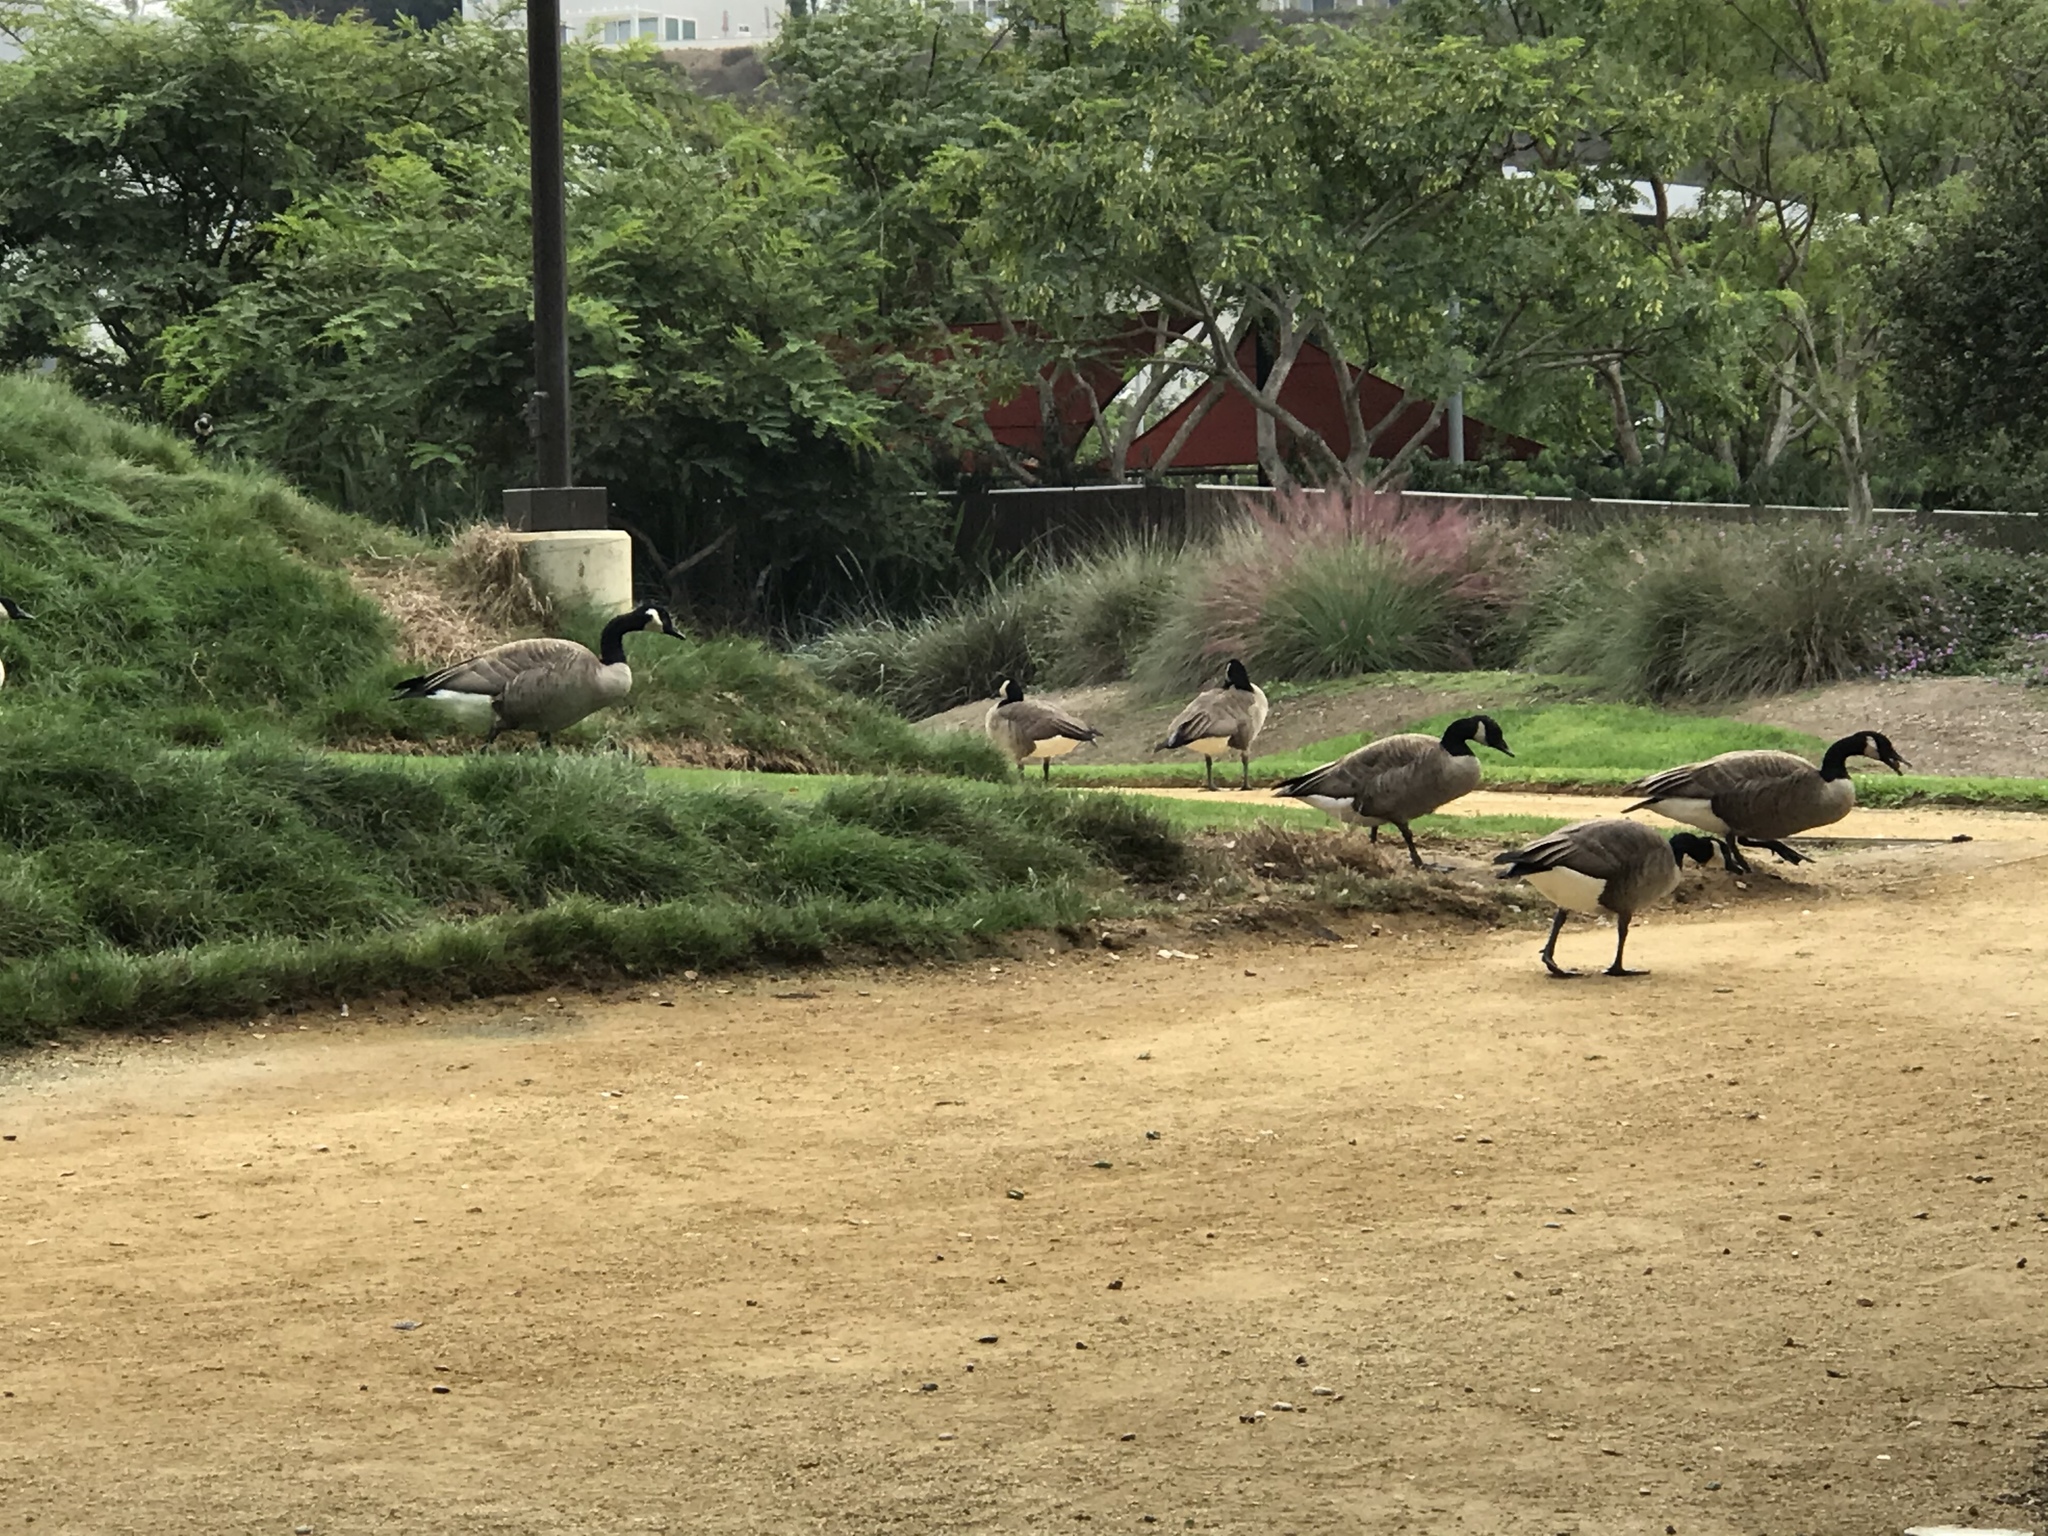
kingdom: Animalia
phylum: Chordata
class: Aves
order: Anseriformes
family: Anatidae
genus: Branta
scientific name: Branta canadensis
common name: Canada goose
